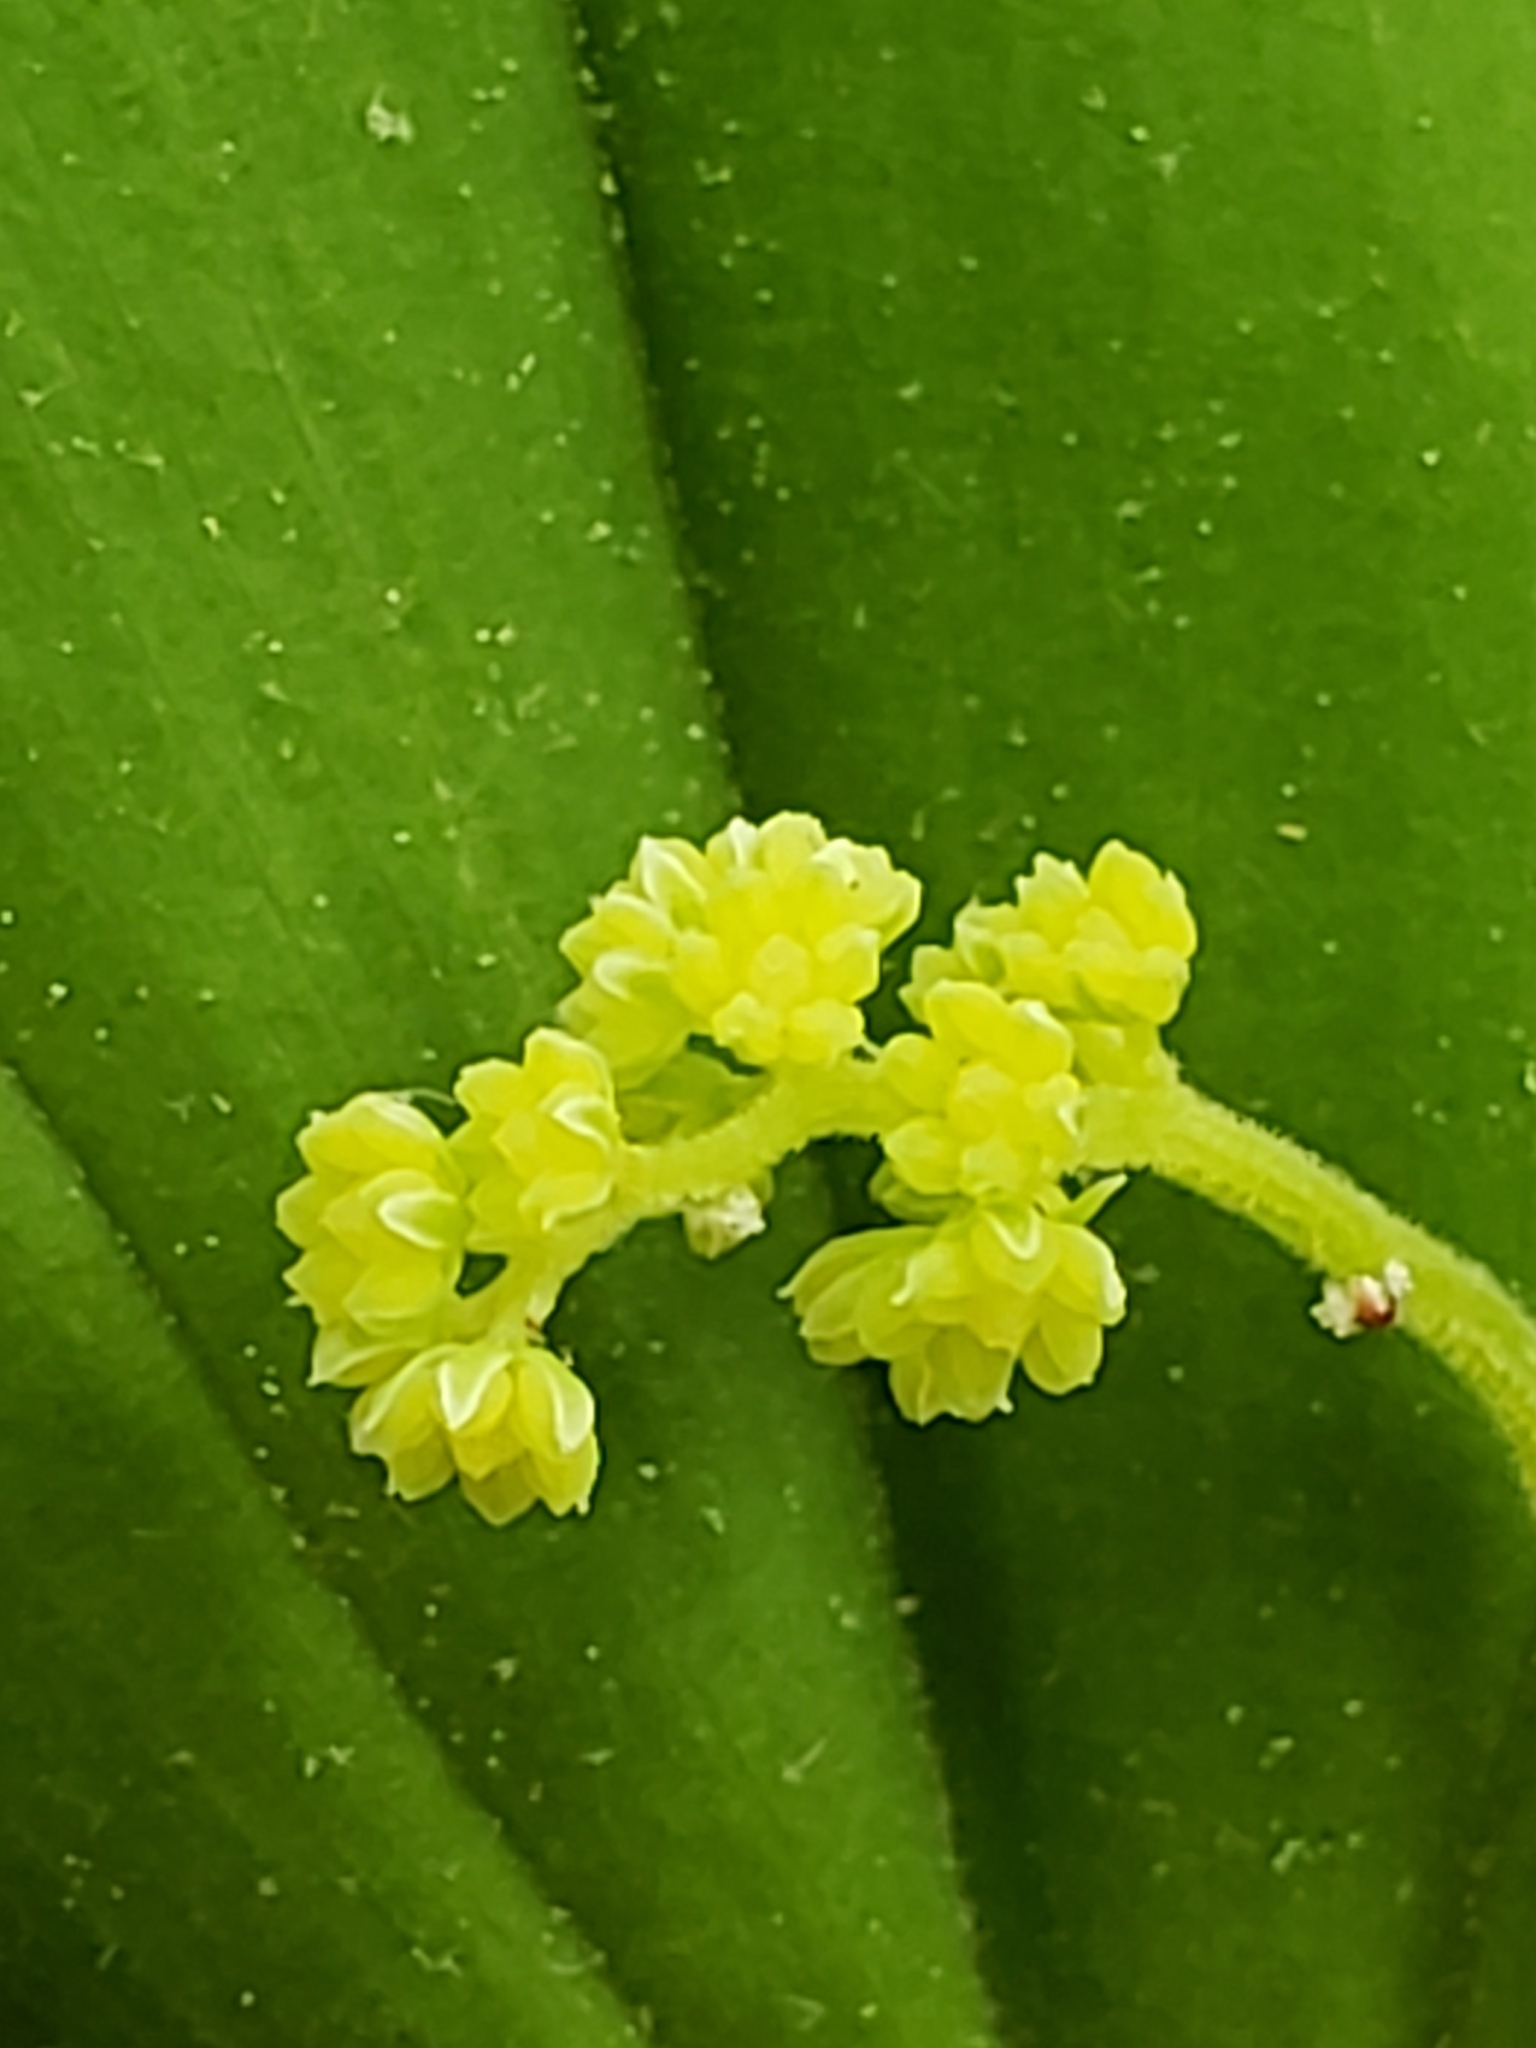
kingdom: Plantae
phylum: Tracheophyta
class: Liliopsida
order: Asparagales
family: Asparagaceae
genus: Maianthemum
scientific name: Maianthemum racemosum
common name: False spikenard
